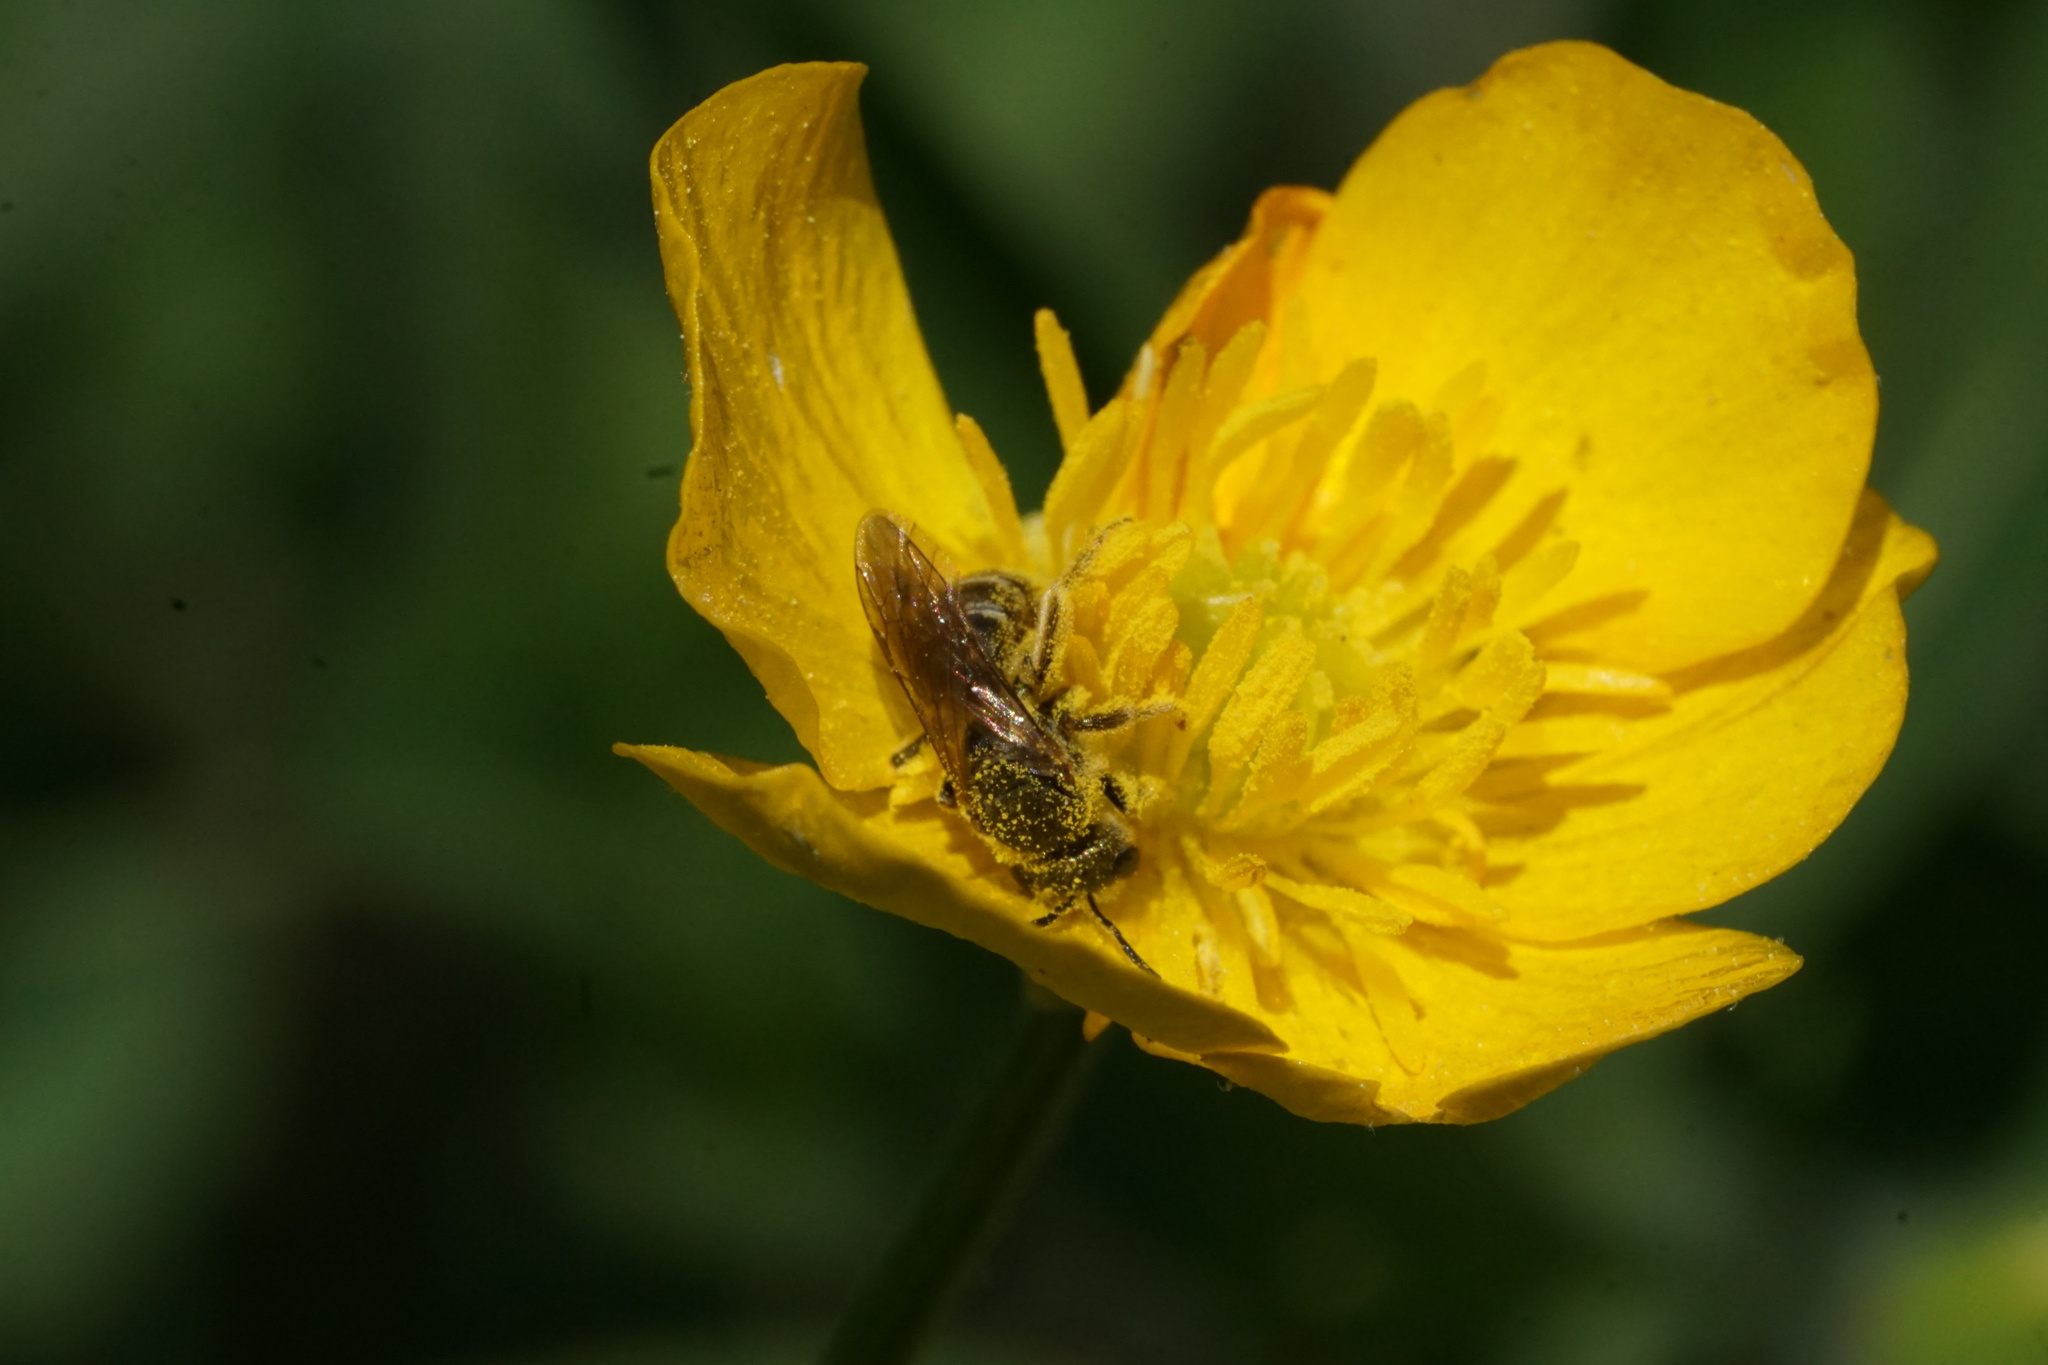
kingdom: Animalia
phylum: Arthropoda
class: Insecta
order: Hymenoptera
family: Halictidae
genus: Halictus
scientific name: Halictus confusus
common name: Southern bronze furrow bee
